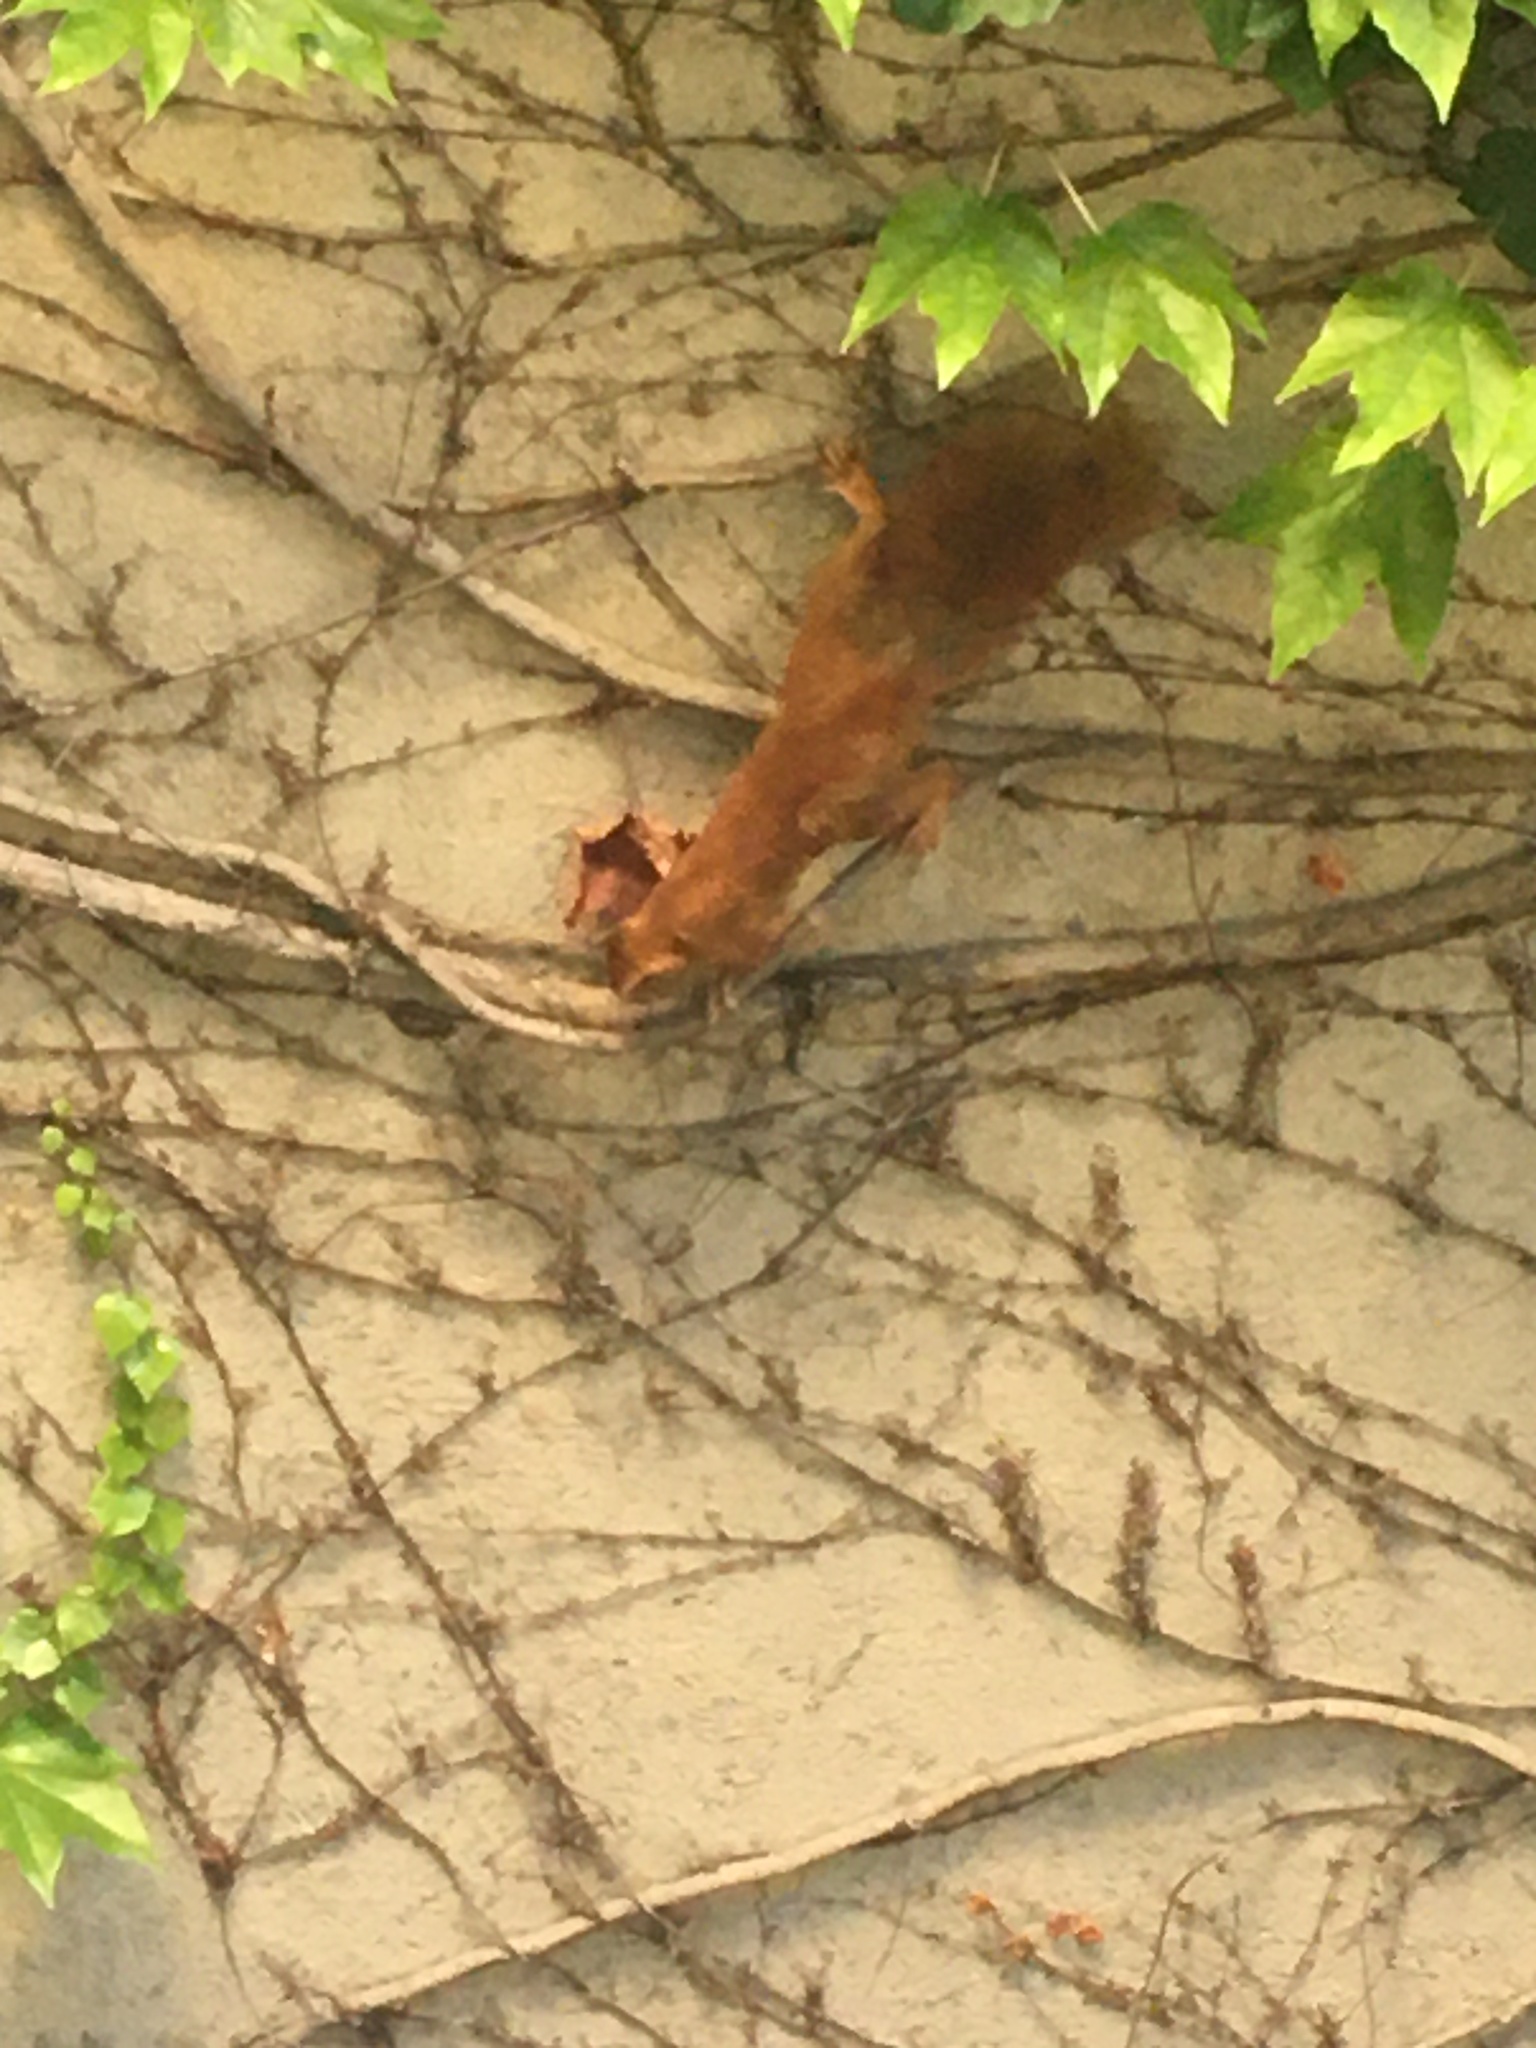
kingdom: Animalia
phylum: Chordata
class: Mammalia
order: Rodentia
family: Sciuridae
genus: Sciurus
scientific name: Sciurus vulgaris
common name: Eurasian red squirrel
